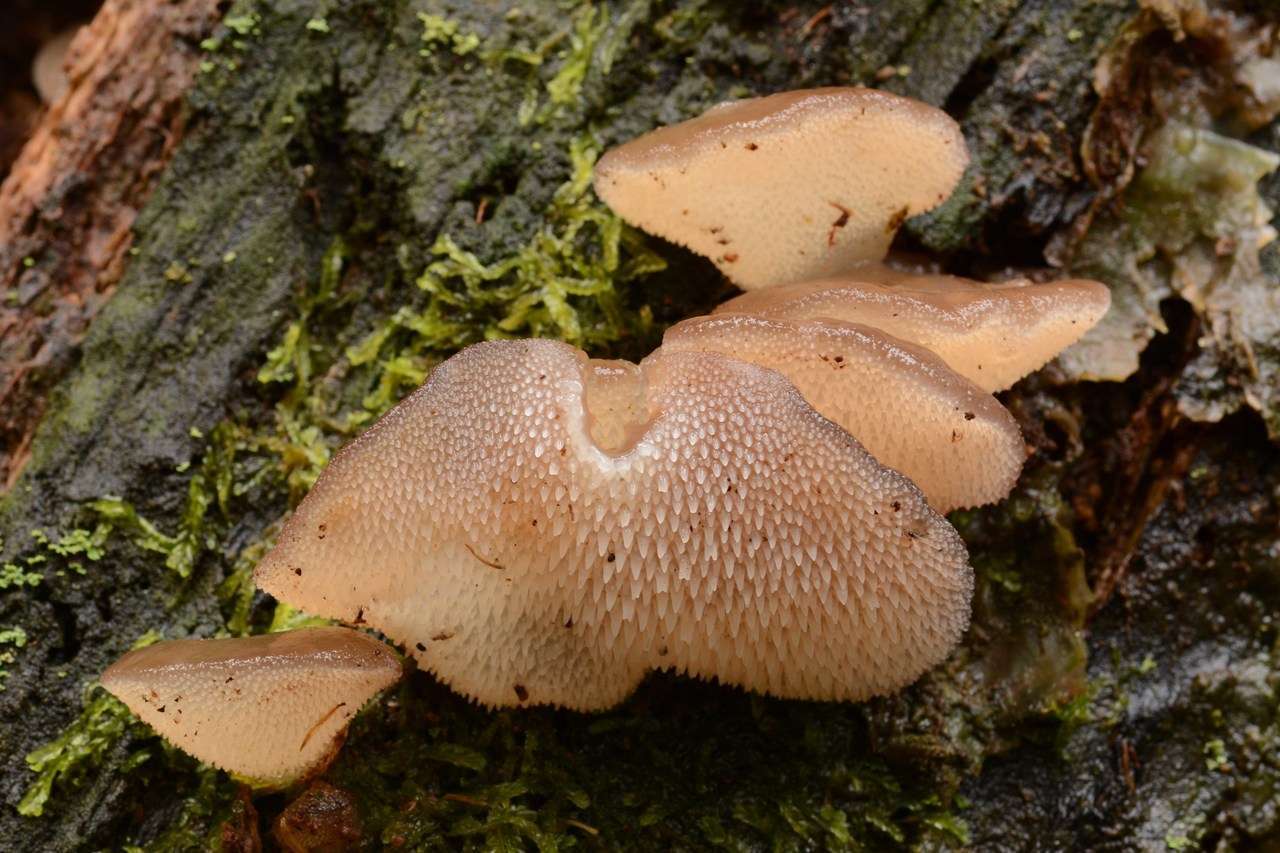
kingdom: Fungi
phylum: Basidiomycota
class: Agaricomycetes
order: Auriculariales
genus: Pseudohydnum
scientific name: Pseudohydnum gelatinosum
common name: Jelly tongue
